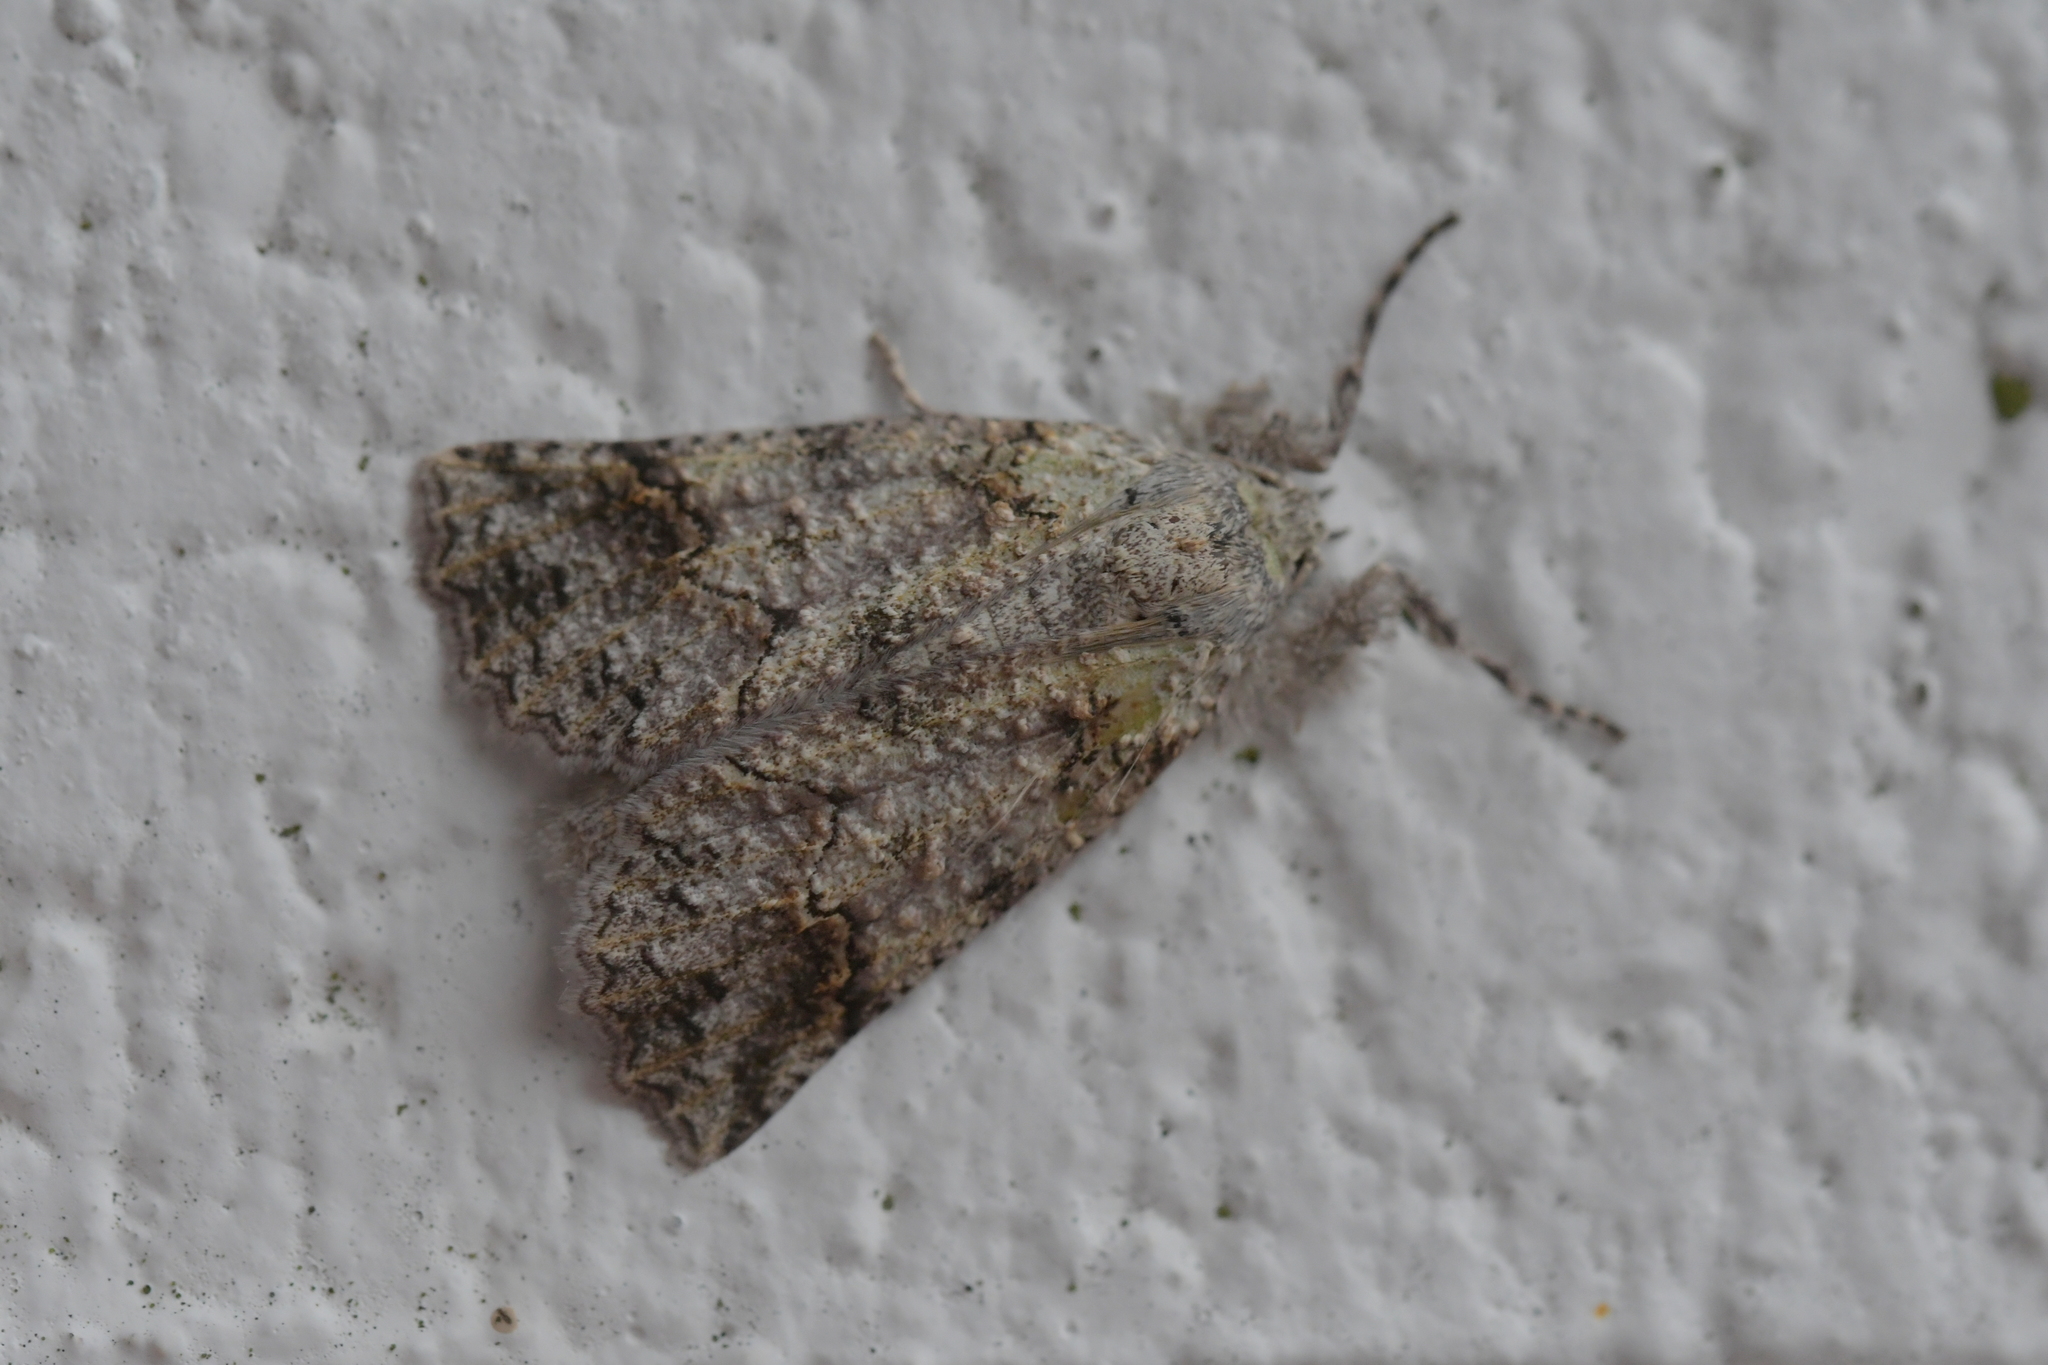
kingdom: Animalia
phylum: Arthropoda
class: Insecta
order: Lepidoptera
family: Geometridae
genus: Declana
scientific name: Declana floccosa
